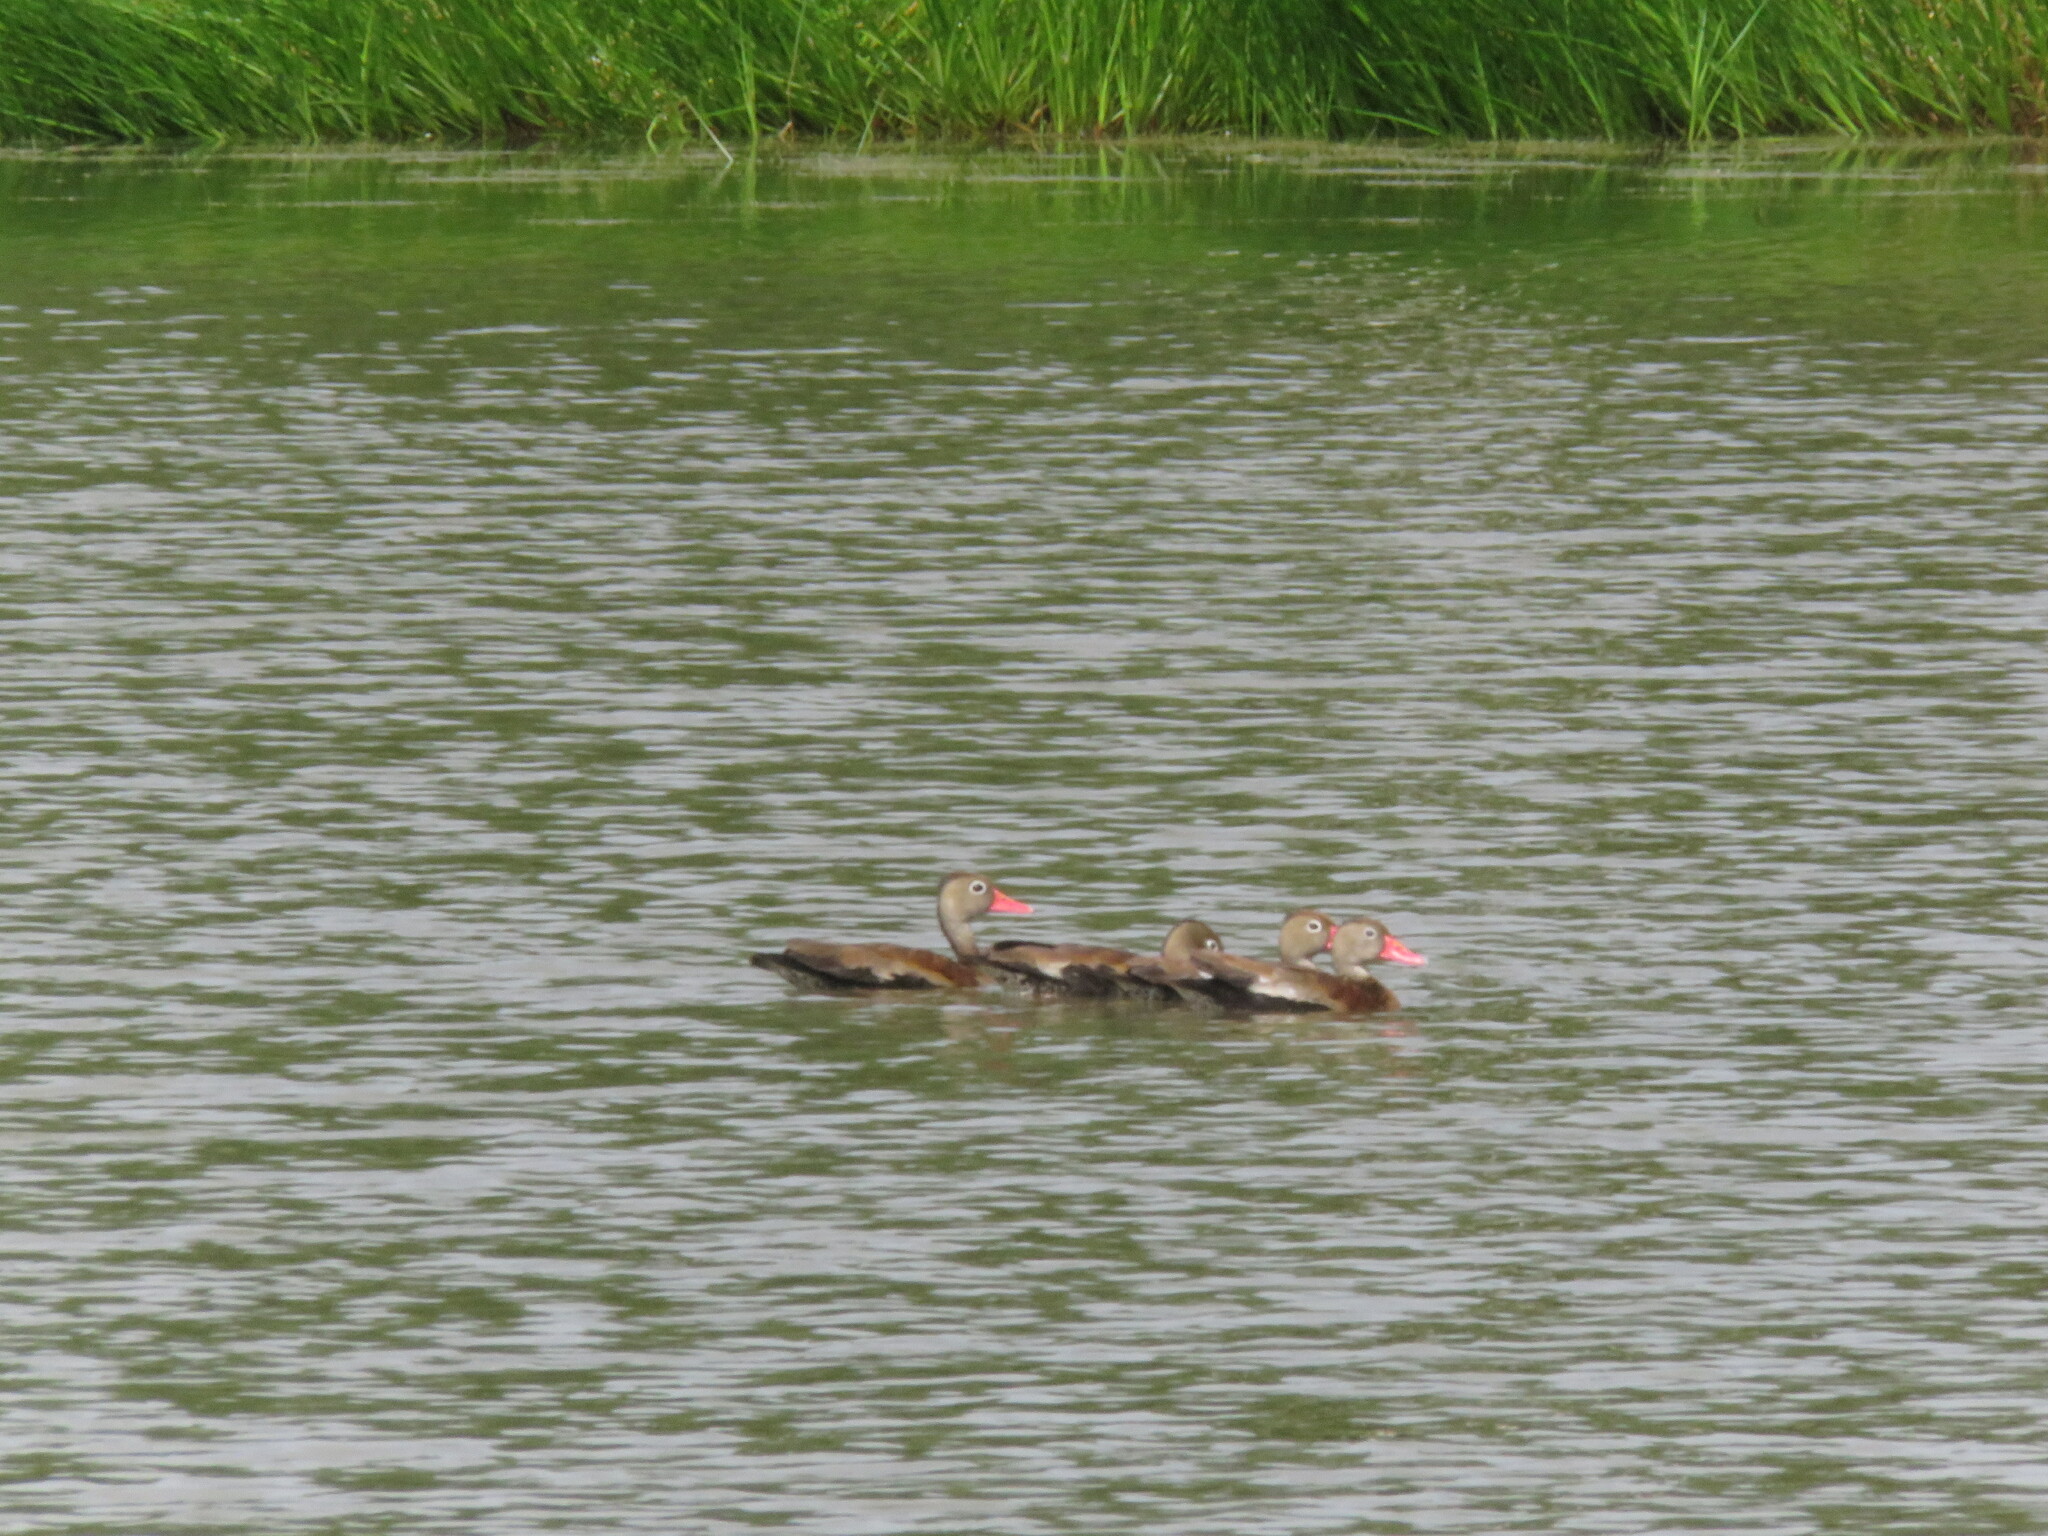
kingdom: Animalia
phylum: Chordata
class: Aves
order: Anseriformes
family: Anatidae
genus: Dendrocygna
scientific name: Dendrocygna autumnalis
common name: Black-bellied whistling duck
